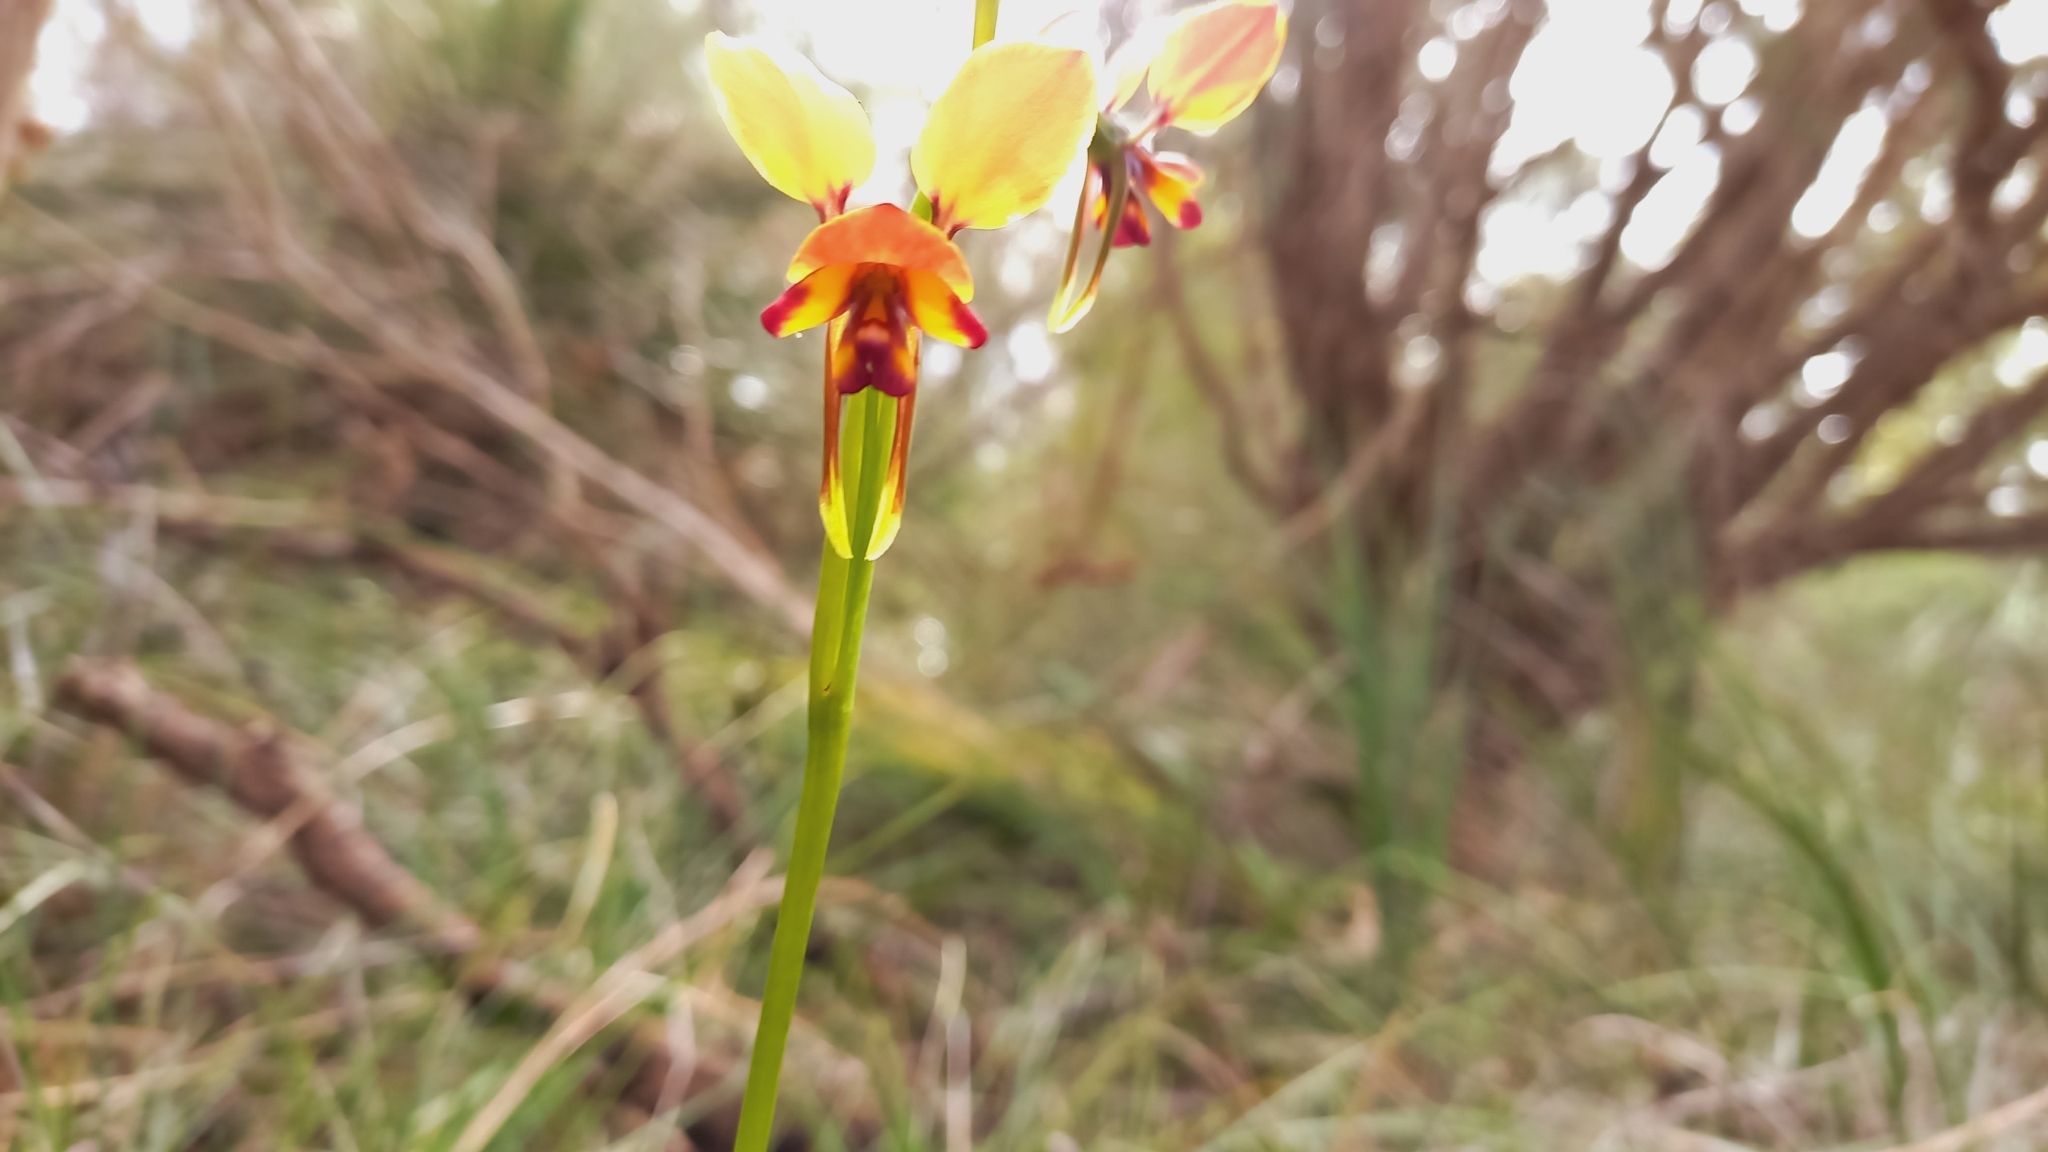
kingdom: Plantae
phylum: Tracheophyta
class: Liliopsida
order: Asparagales
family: Orchidaceae
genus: Diuris
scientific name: Diuris brumalis
